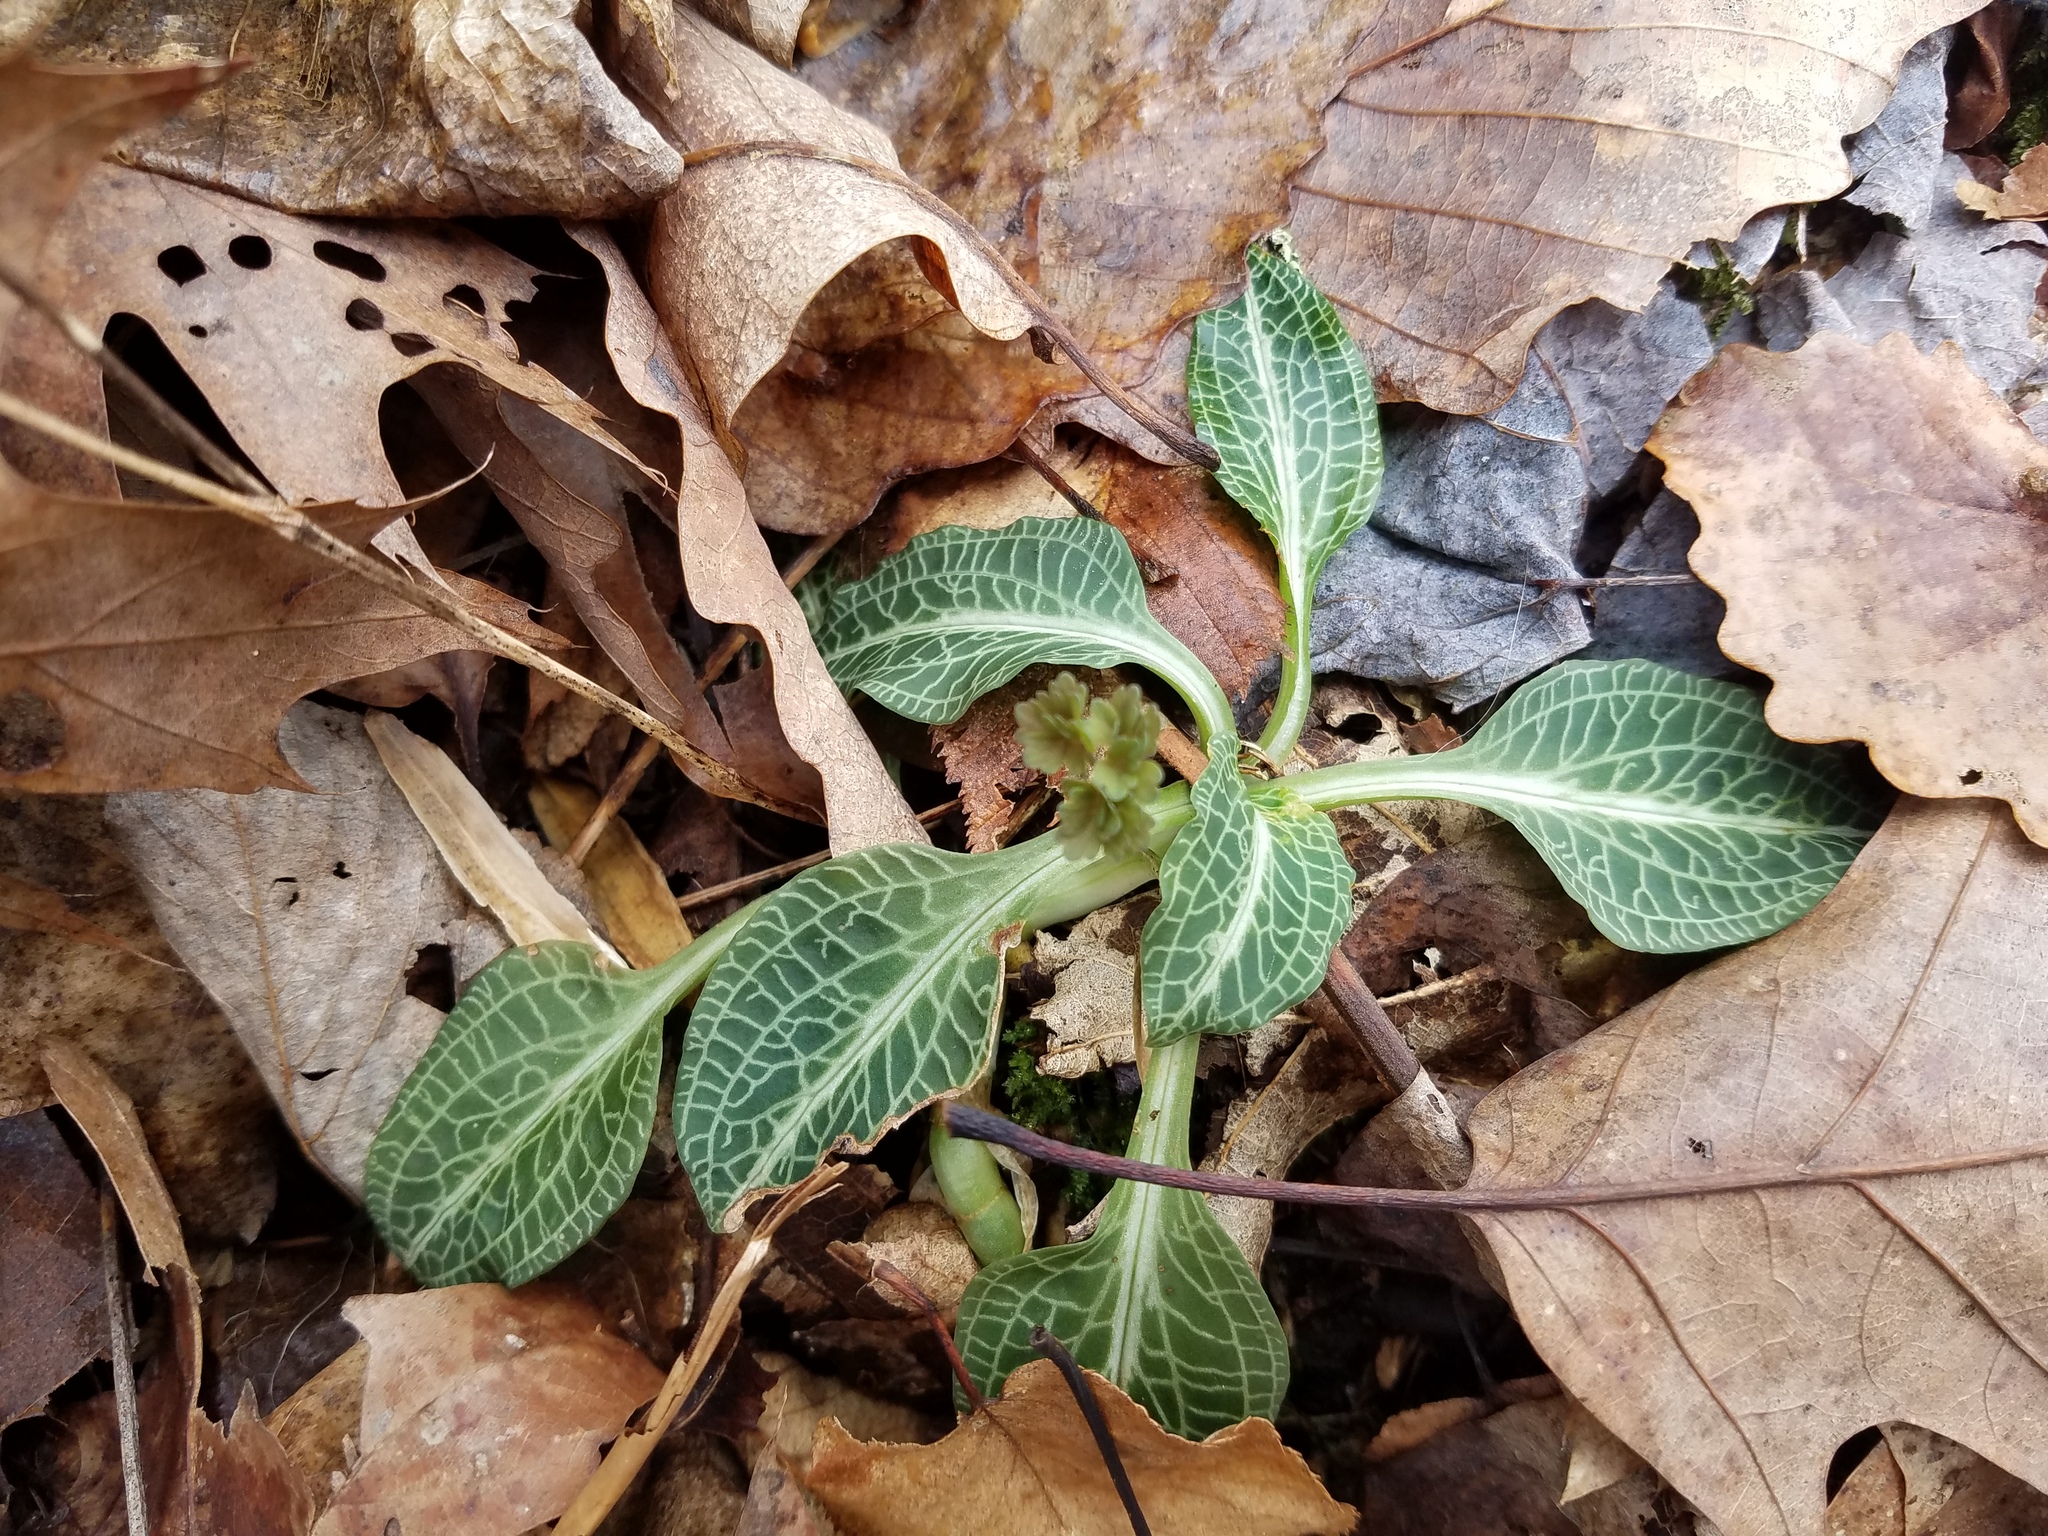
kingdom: Plantae
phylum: Tracheophyta
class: Liliopsida
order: Asparagales
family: Orchidaceae
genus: Goodyera
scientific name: Goodyera pubescens
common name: Downy rattlesnake-plantain
